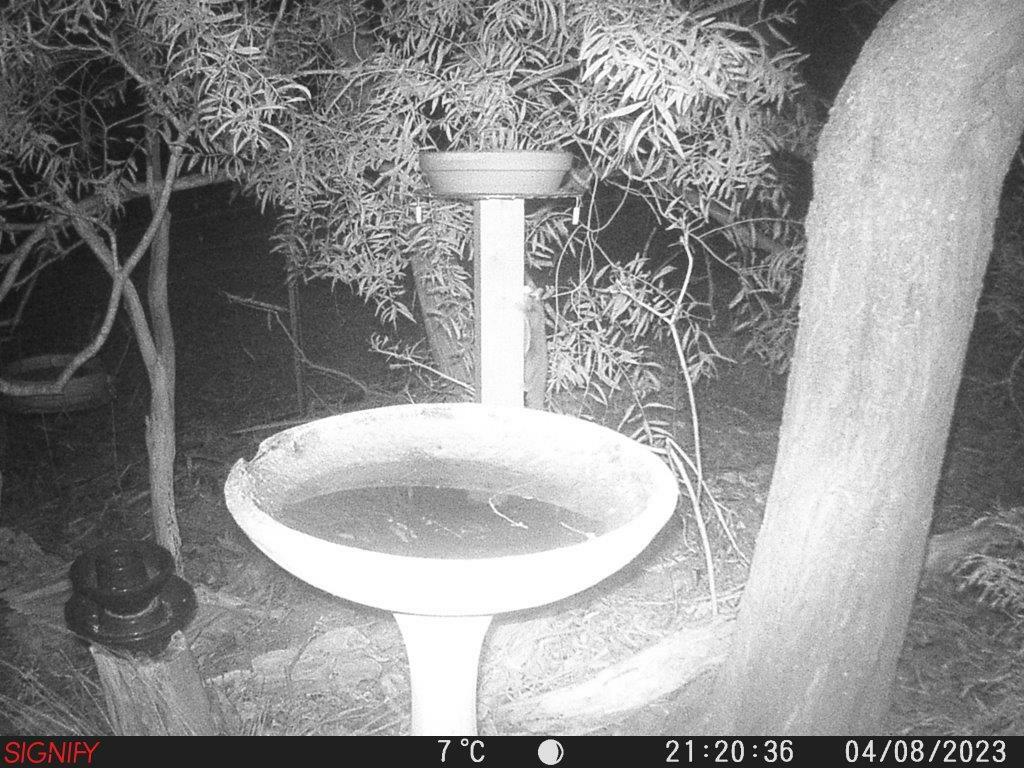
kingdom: Animalia
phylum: Chordata
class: Mammalia
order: Diprotodontia
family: Petauridae
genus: Petaurus
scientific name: Petaurus breviceps
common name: Sugar glider
